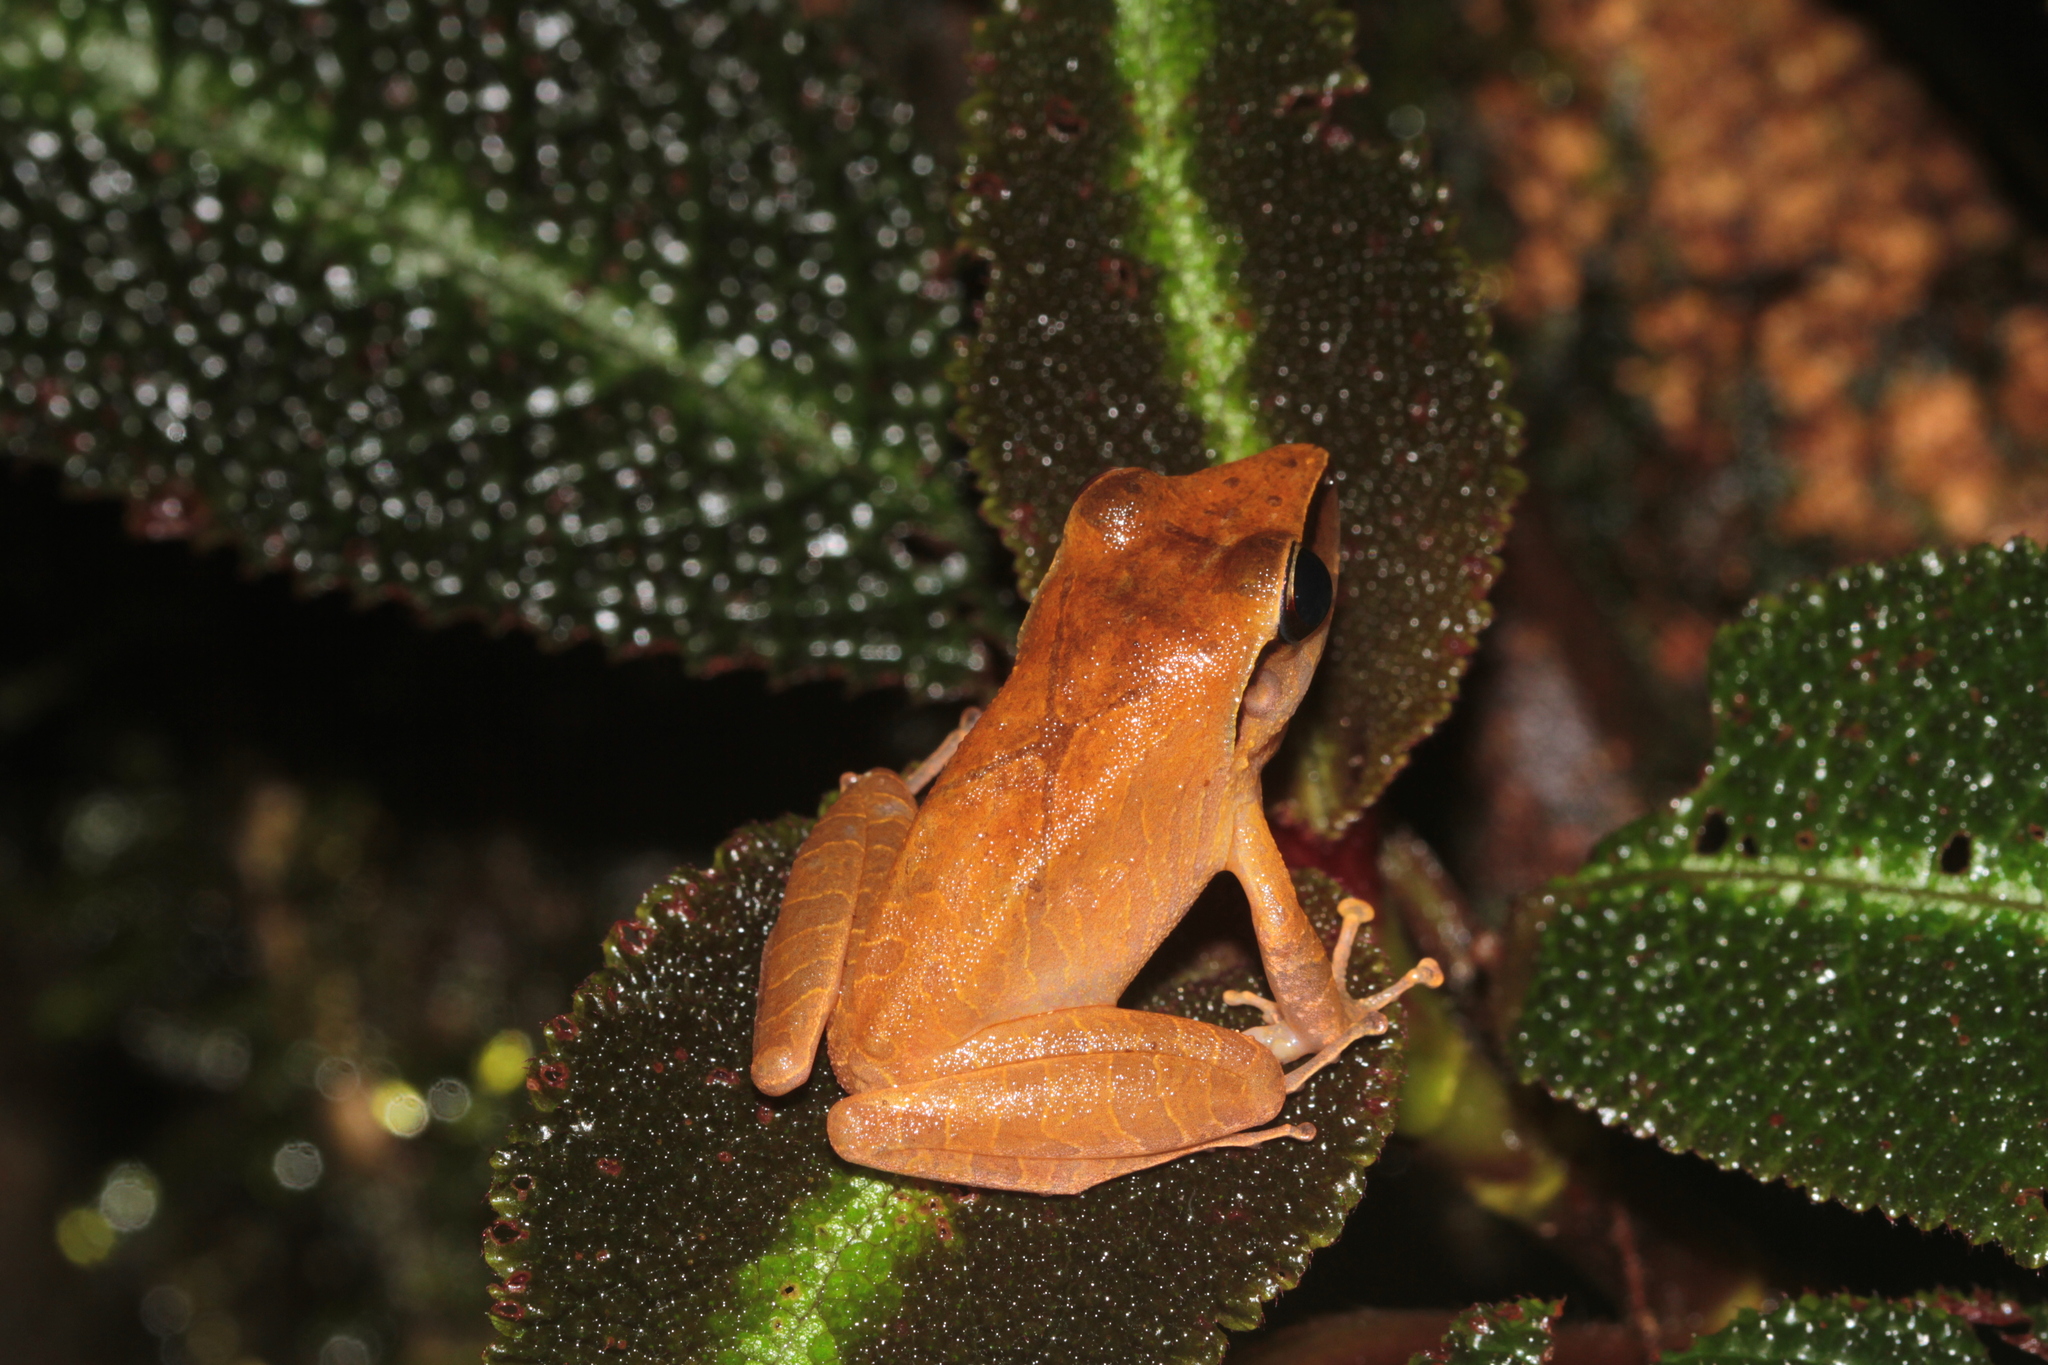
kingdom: Animalia
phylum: Chordata
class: Amphibia
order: Anura
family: Craugastoridae
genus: Pristimantis
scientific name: Pristimantis chiastonotus
